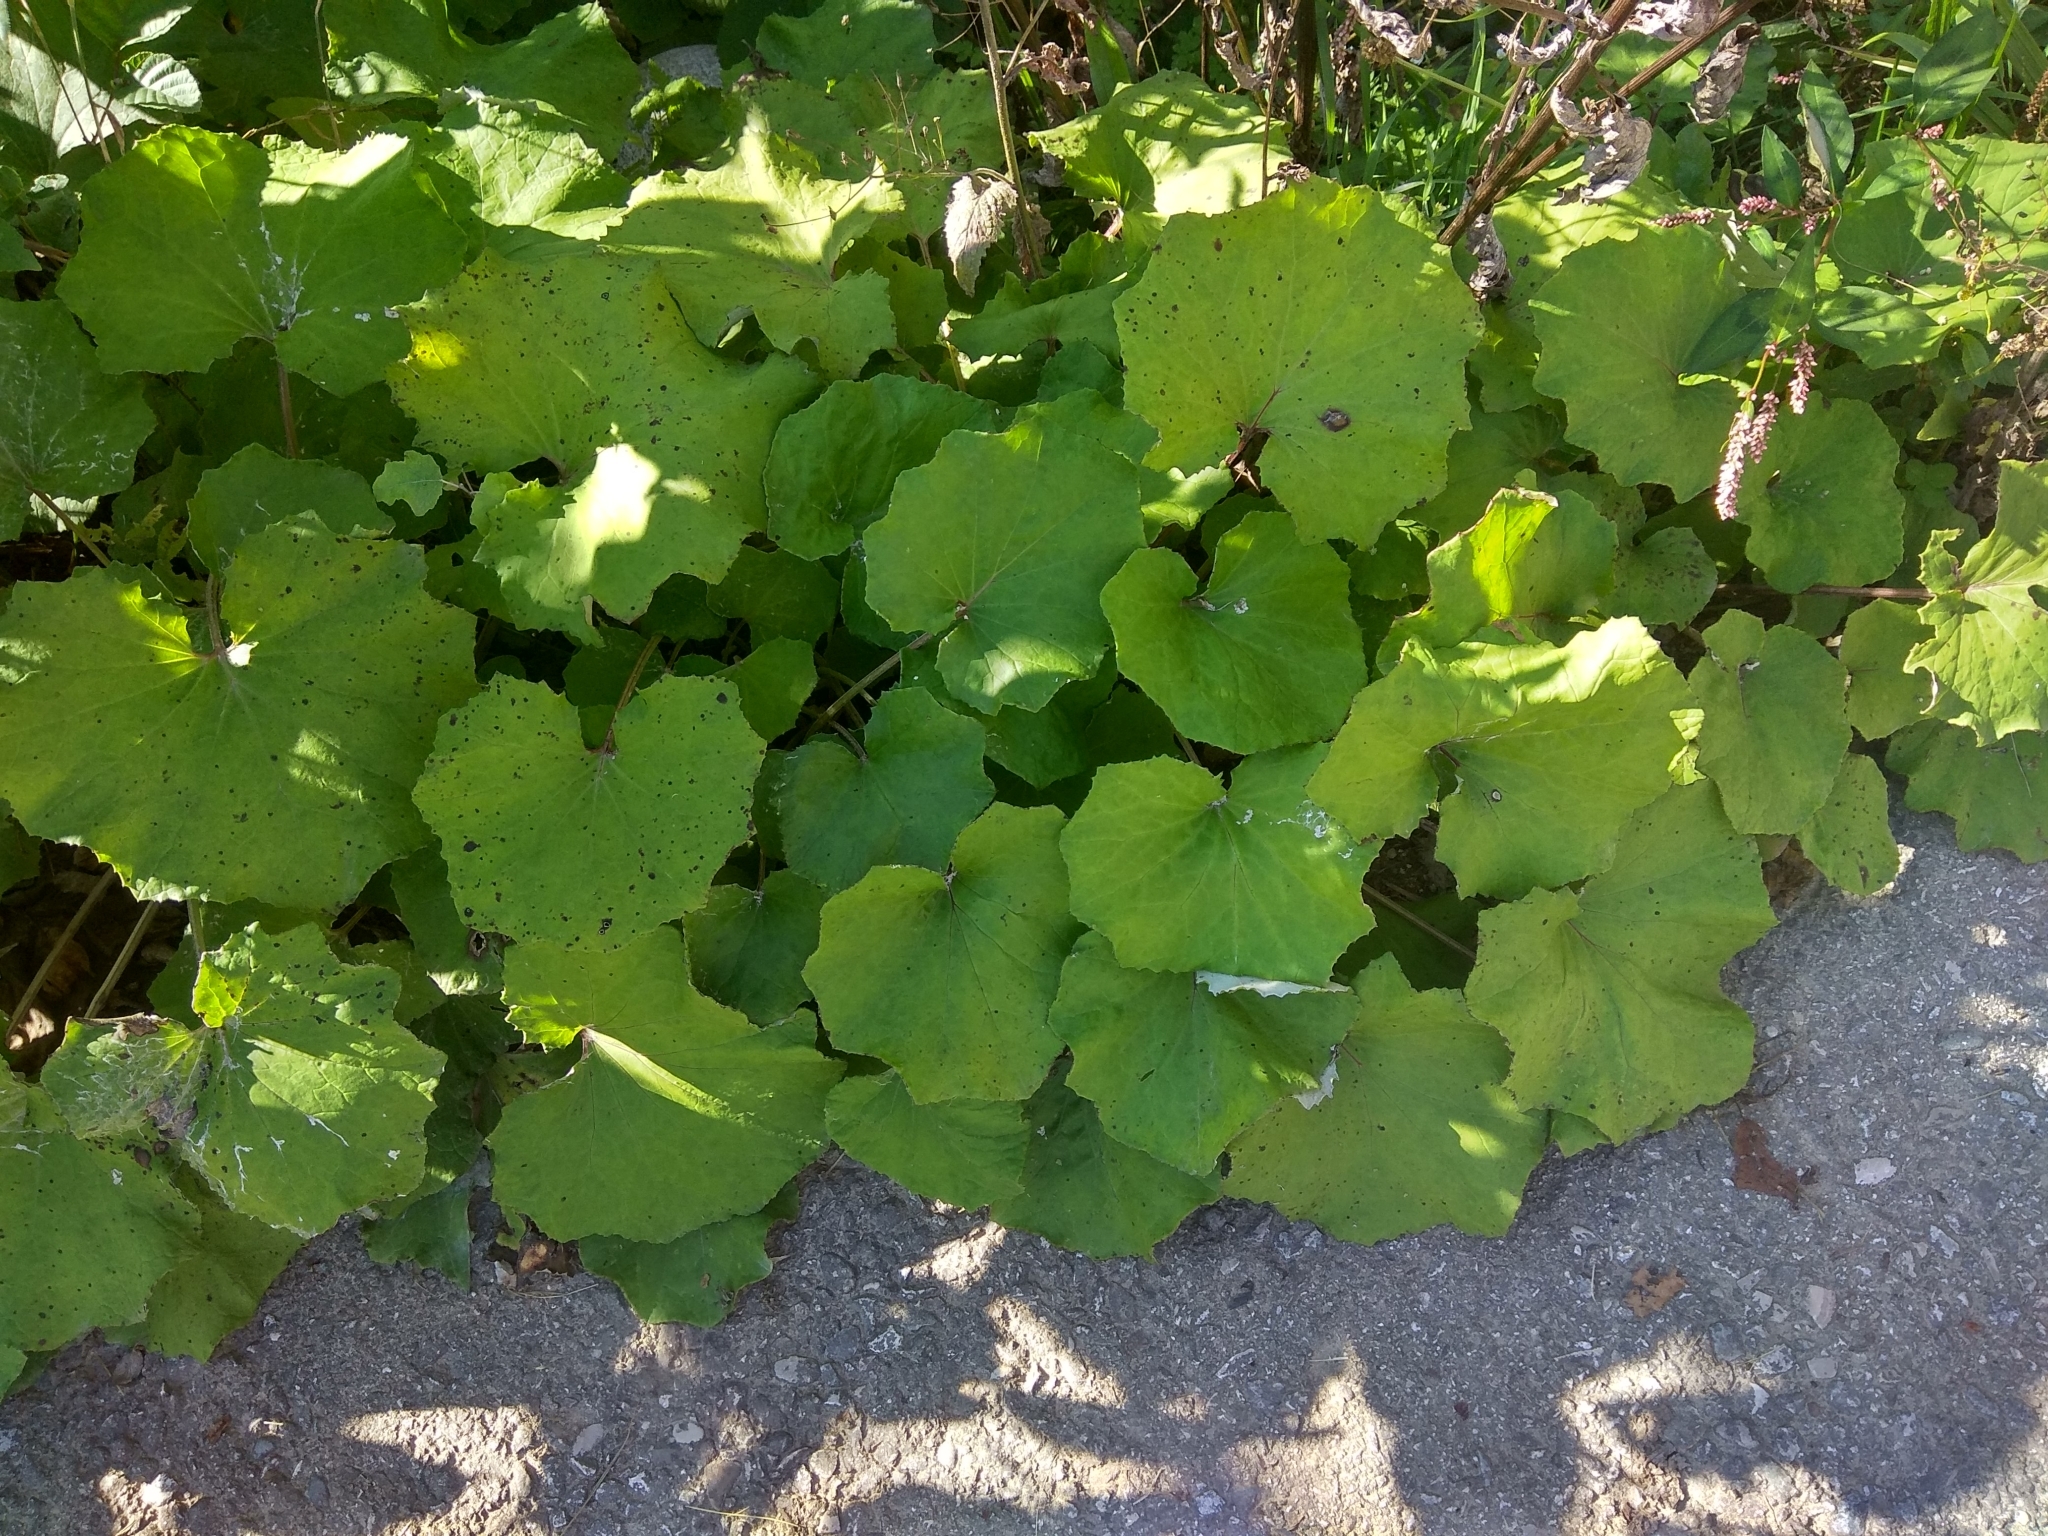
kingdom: Plantae
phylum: Tracheophyta
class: Magnoliopsida
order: Asterales
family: Asteraceae
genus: Tussilago
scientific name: Tussilago farfara
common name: Coltsfoot
